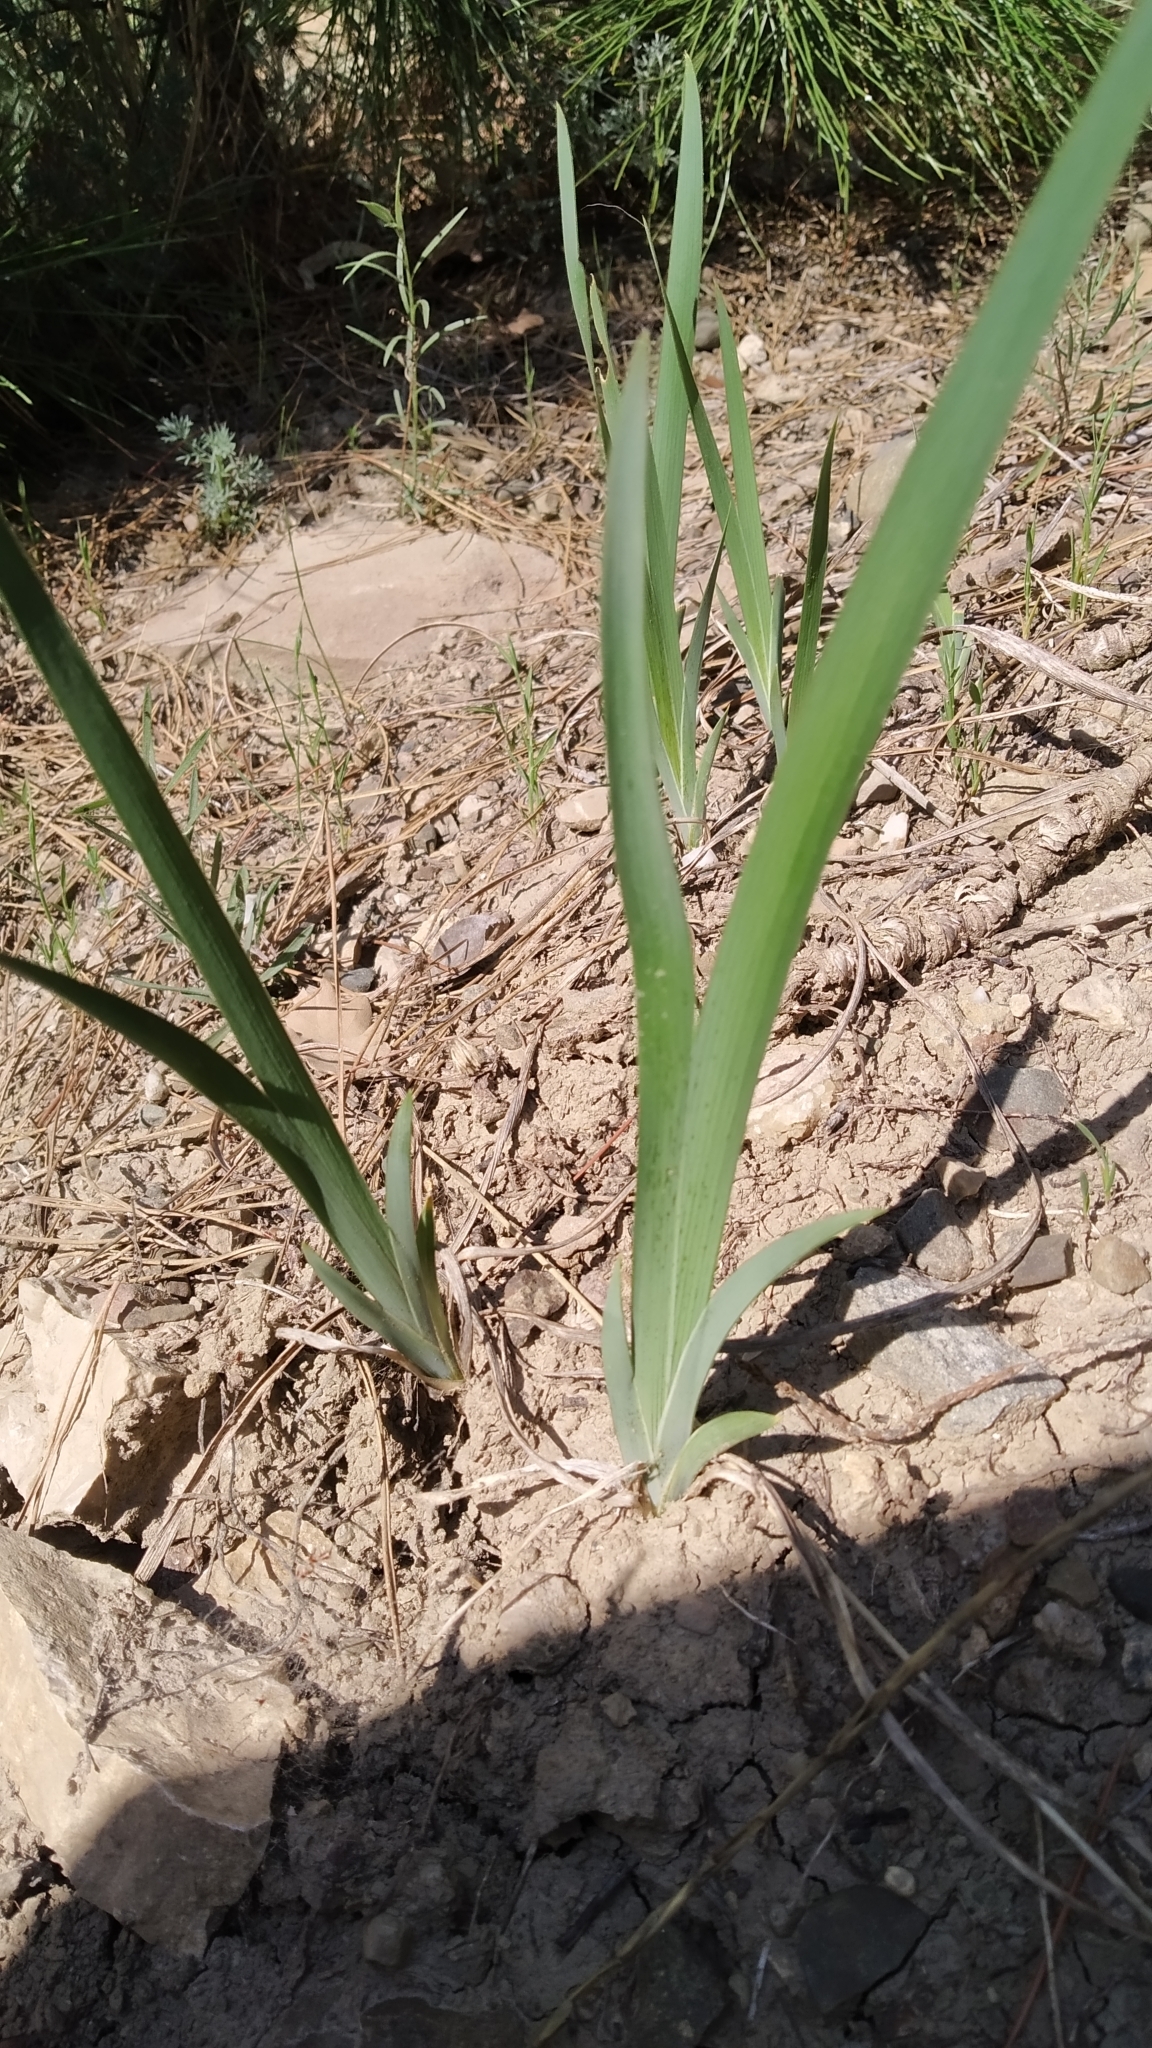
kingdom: Plantae
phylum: Tracheophyta
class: Liliopsida
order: Asparagales
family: Iridaceae
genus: Iris
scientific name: Iris halophila
